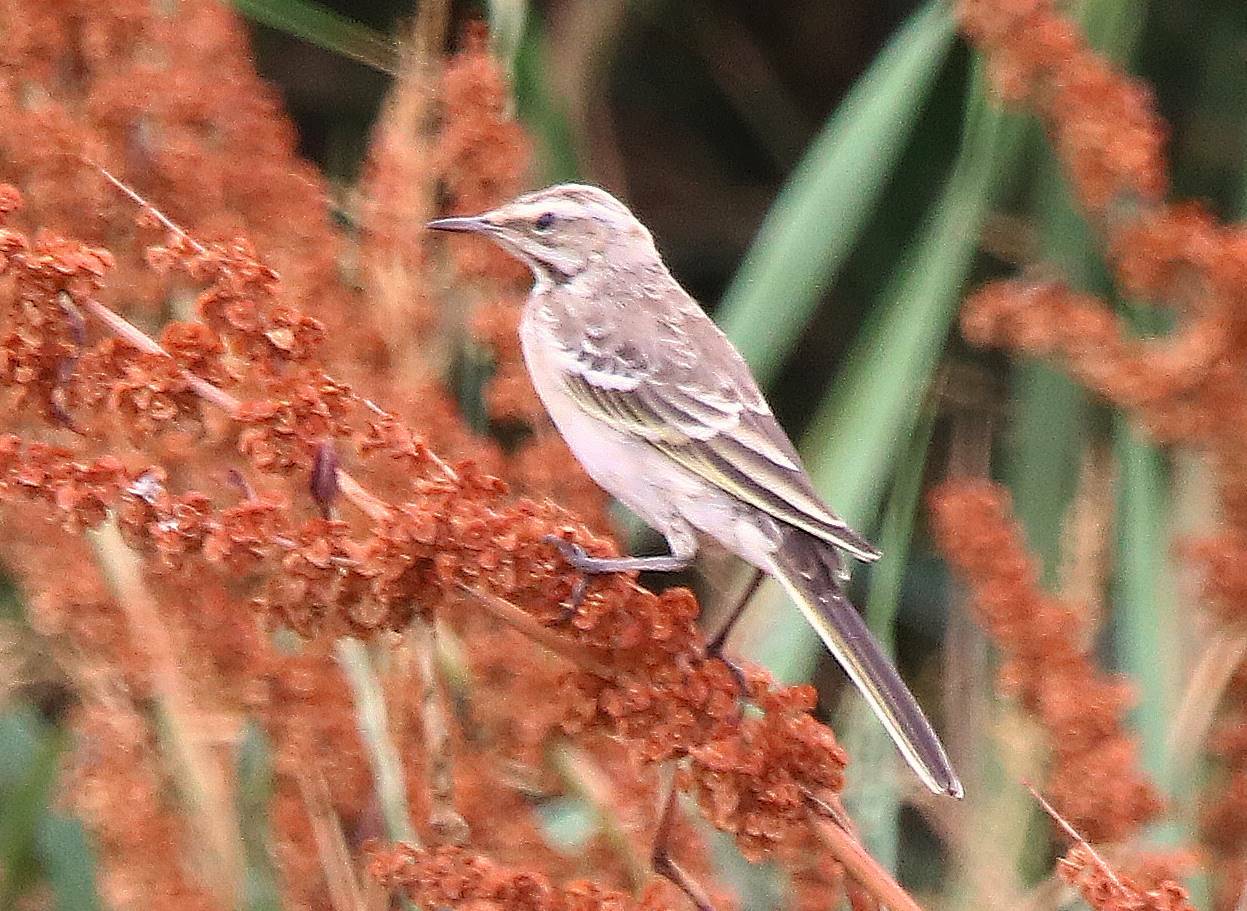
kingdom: Animalia
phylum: Chordata
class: Aves
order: Passeriformes
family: Motacillidae
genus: Motacilla
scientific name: Motacilla flava
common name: Western yellow wagtail
